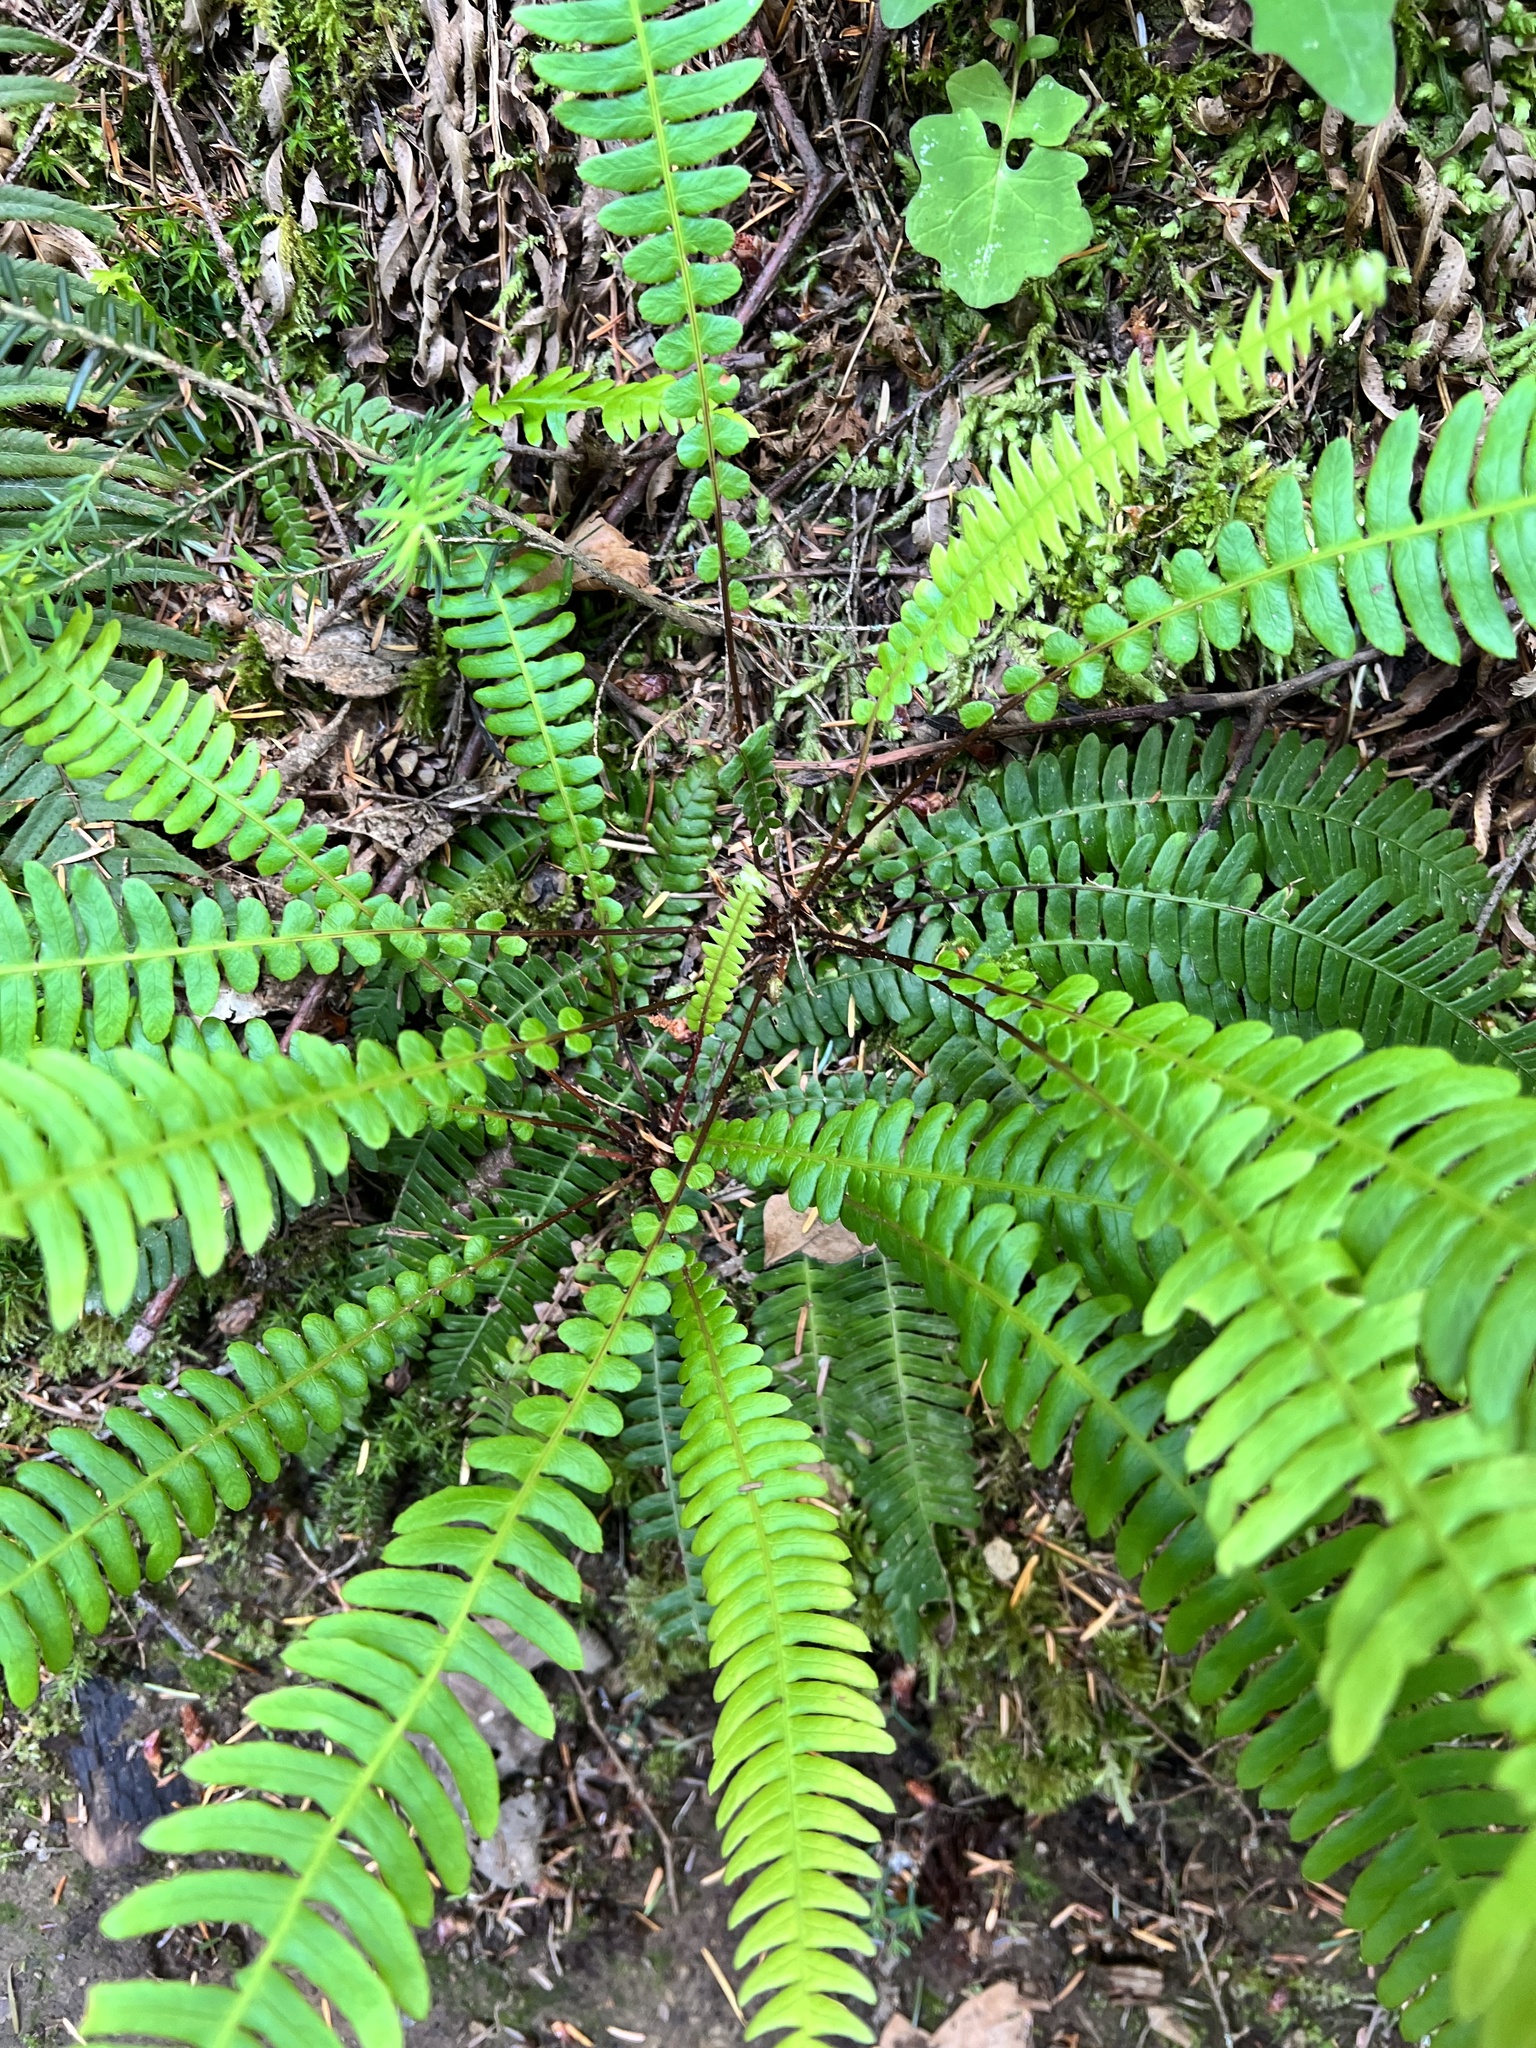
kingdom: Plantae
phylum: Tracheophyta
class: Polypodiopsida
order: Polypodiales
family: Blechnaceae
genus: Struthiopteris
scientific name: Struthiopteris spicant
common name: Deer fern
